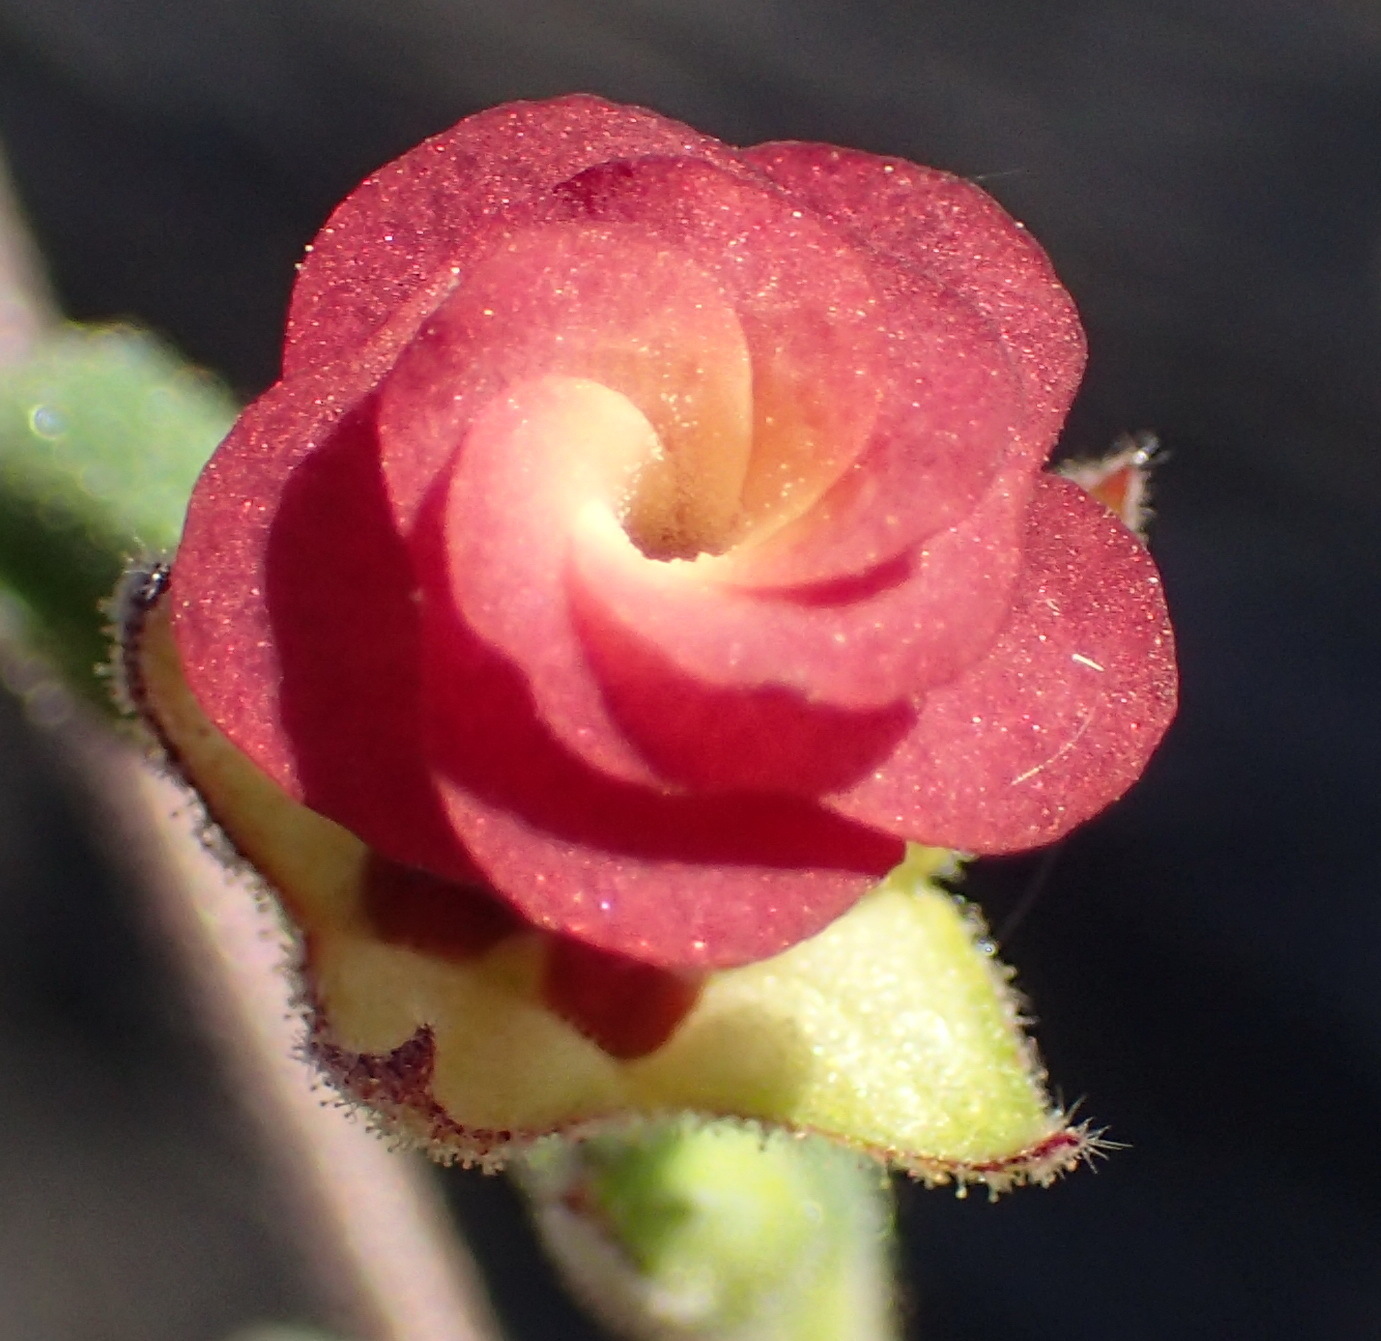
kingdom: Plantae
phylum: Tracheophyta
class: Magnoliopsida
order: Malvales
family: Malvaceae
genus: Hermannia
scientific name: Hermannia flammula
